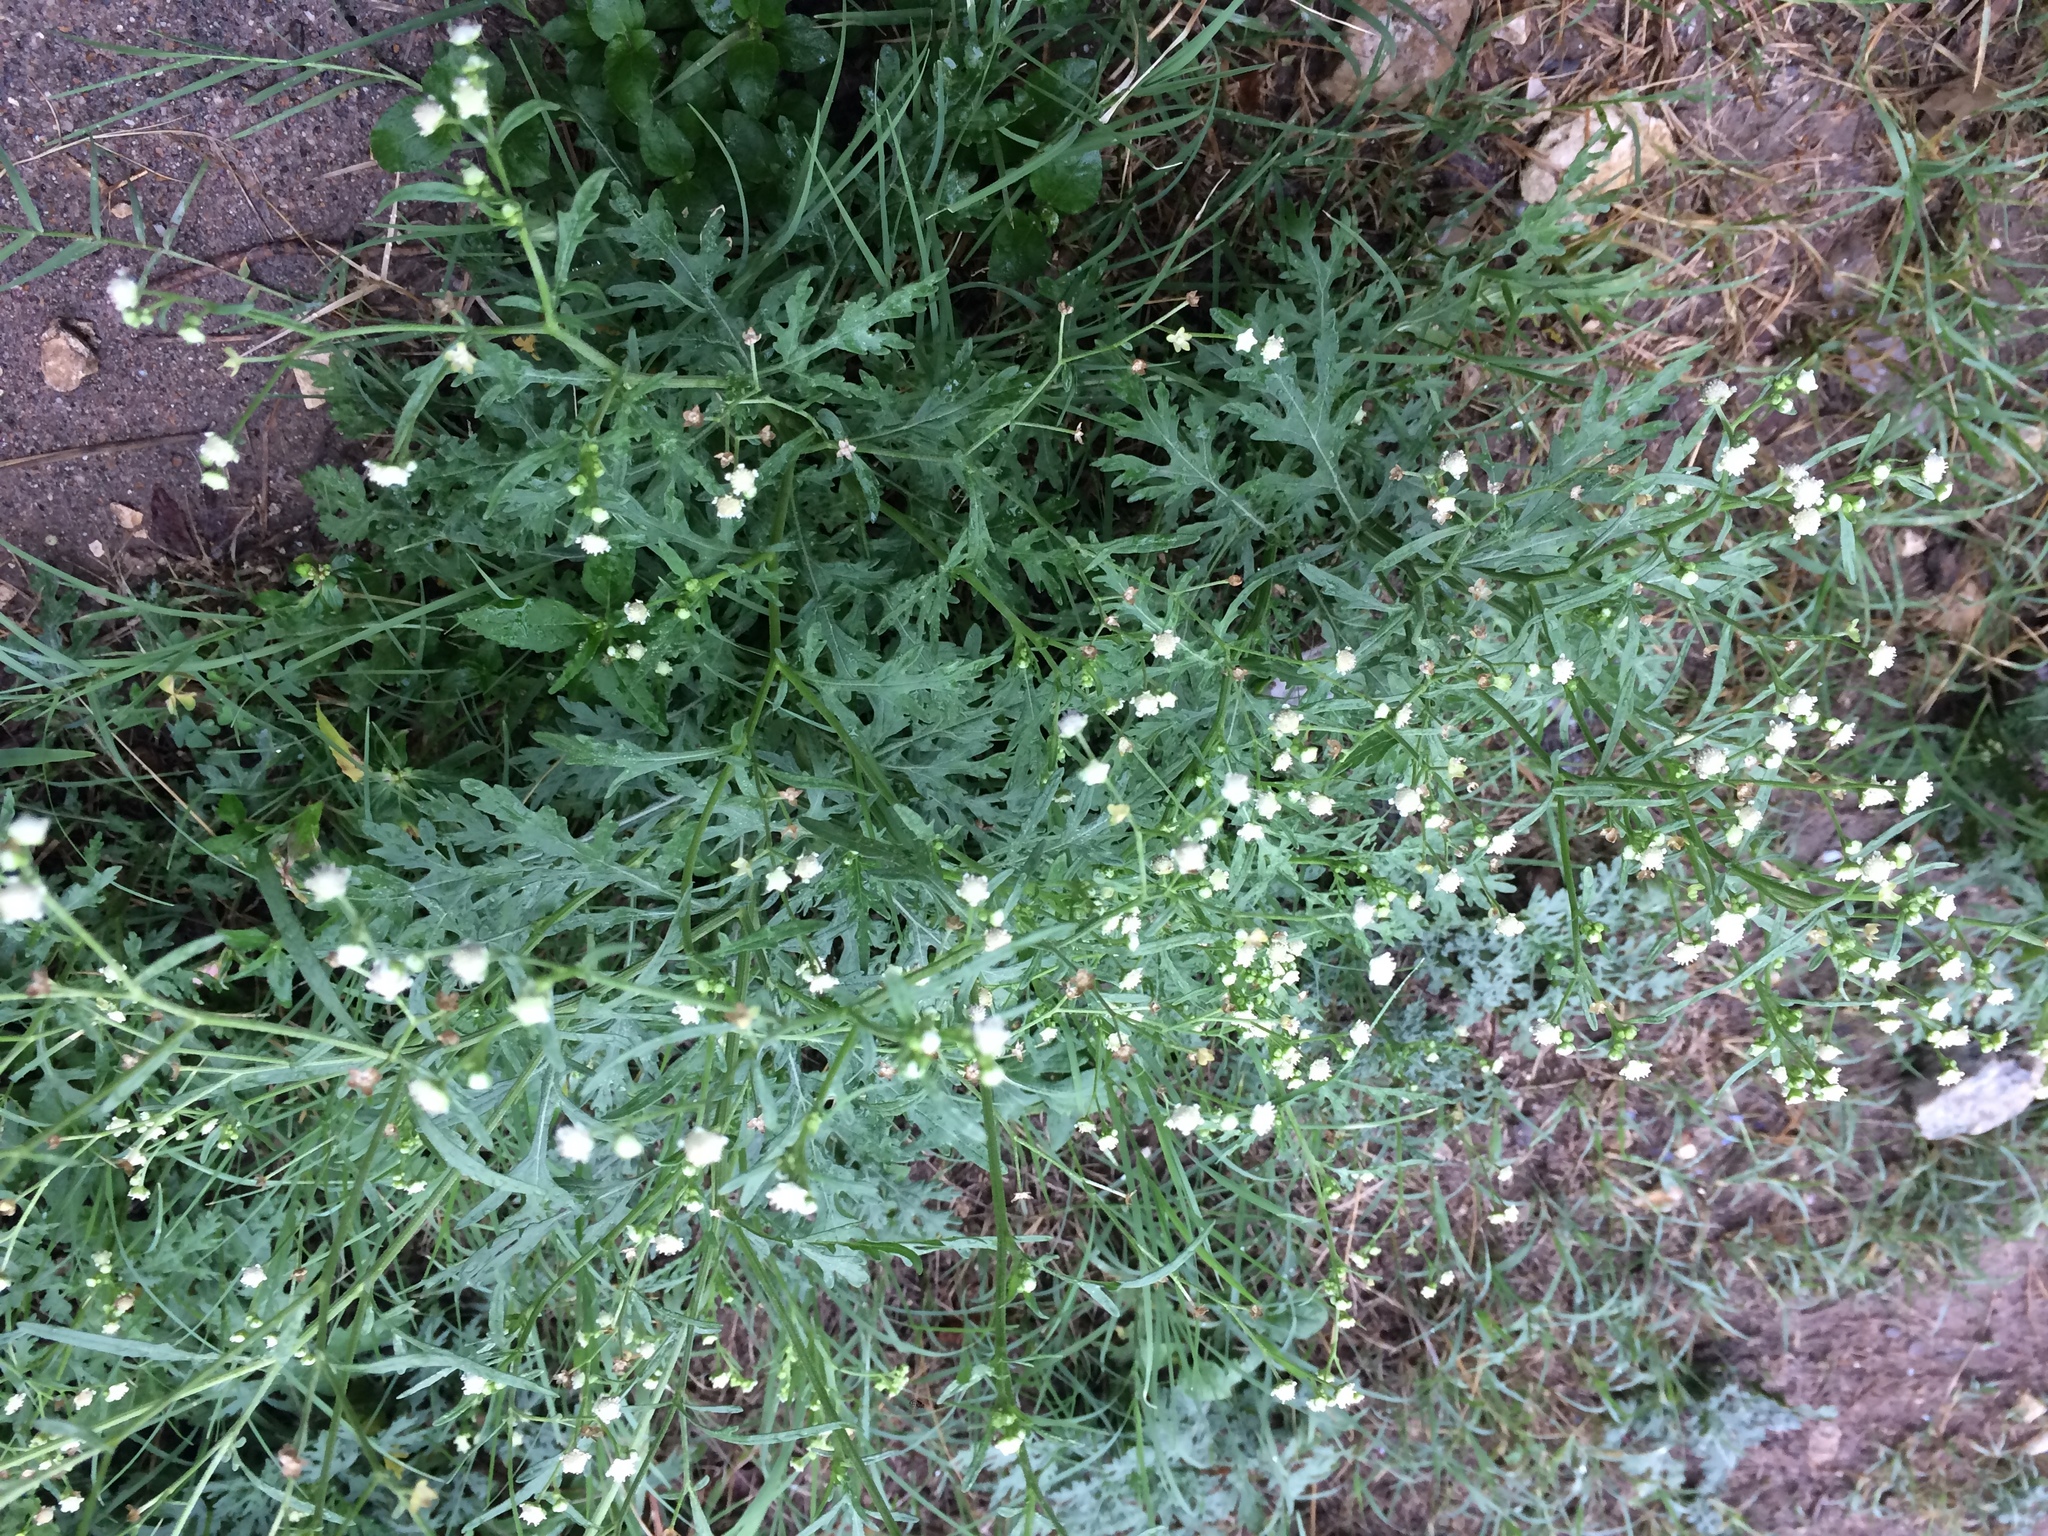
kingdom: Plantae
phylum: Tracheophyta
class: Magnoliopsida
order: Asterales
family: Asteraceae
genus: Parthenium
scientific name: Parthenium hysterophorus
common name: Santa maria feverfew
